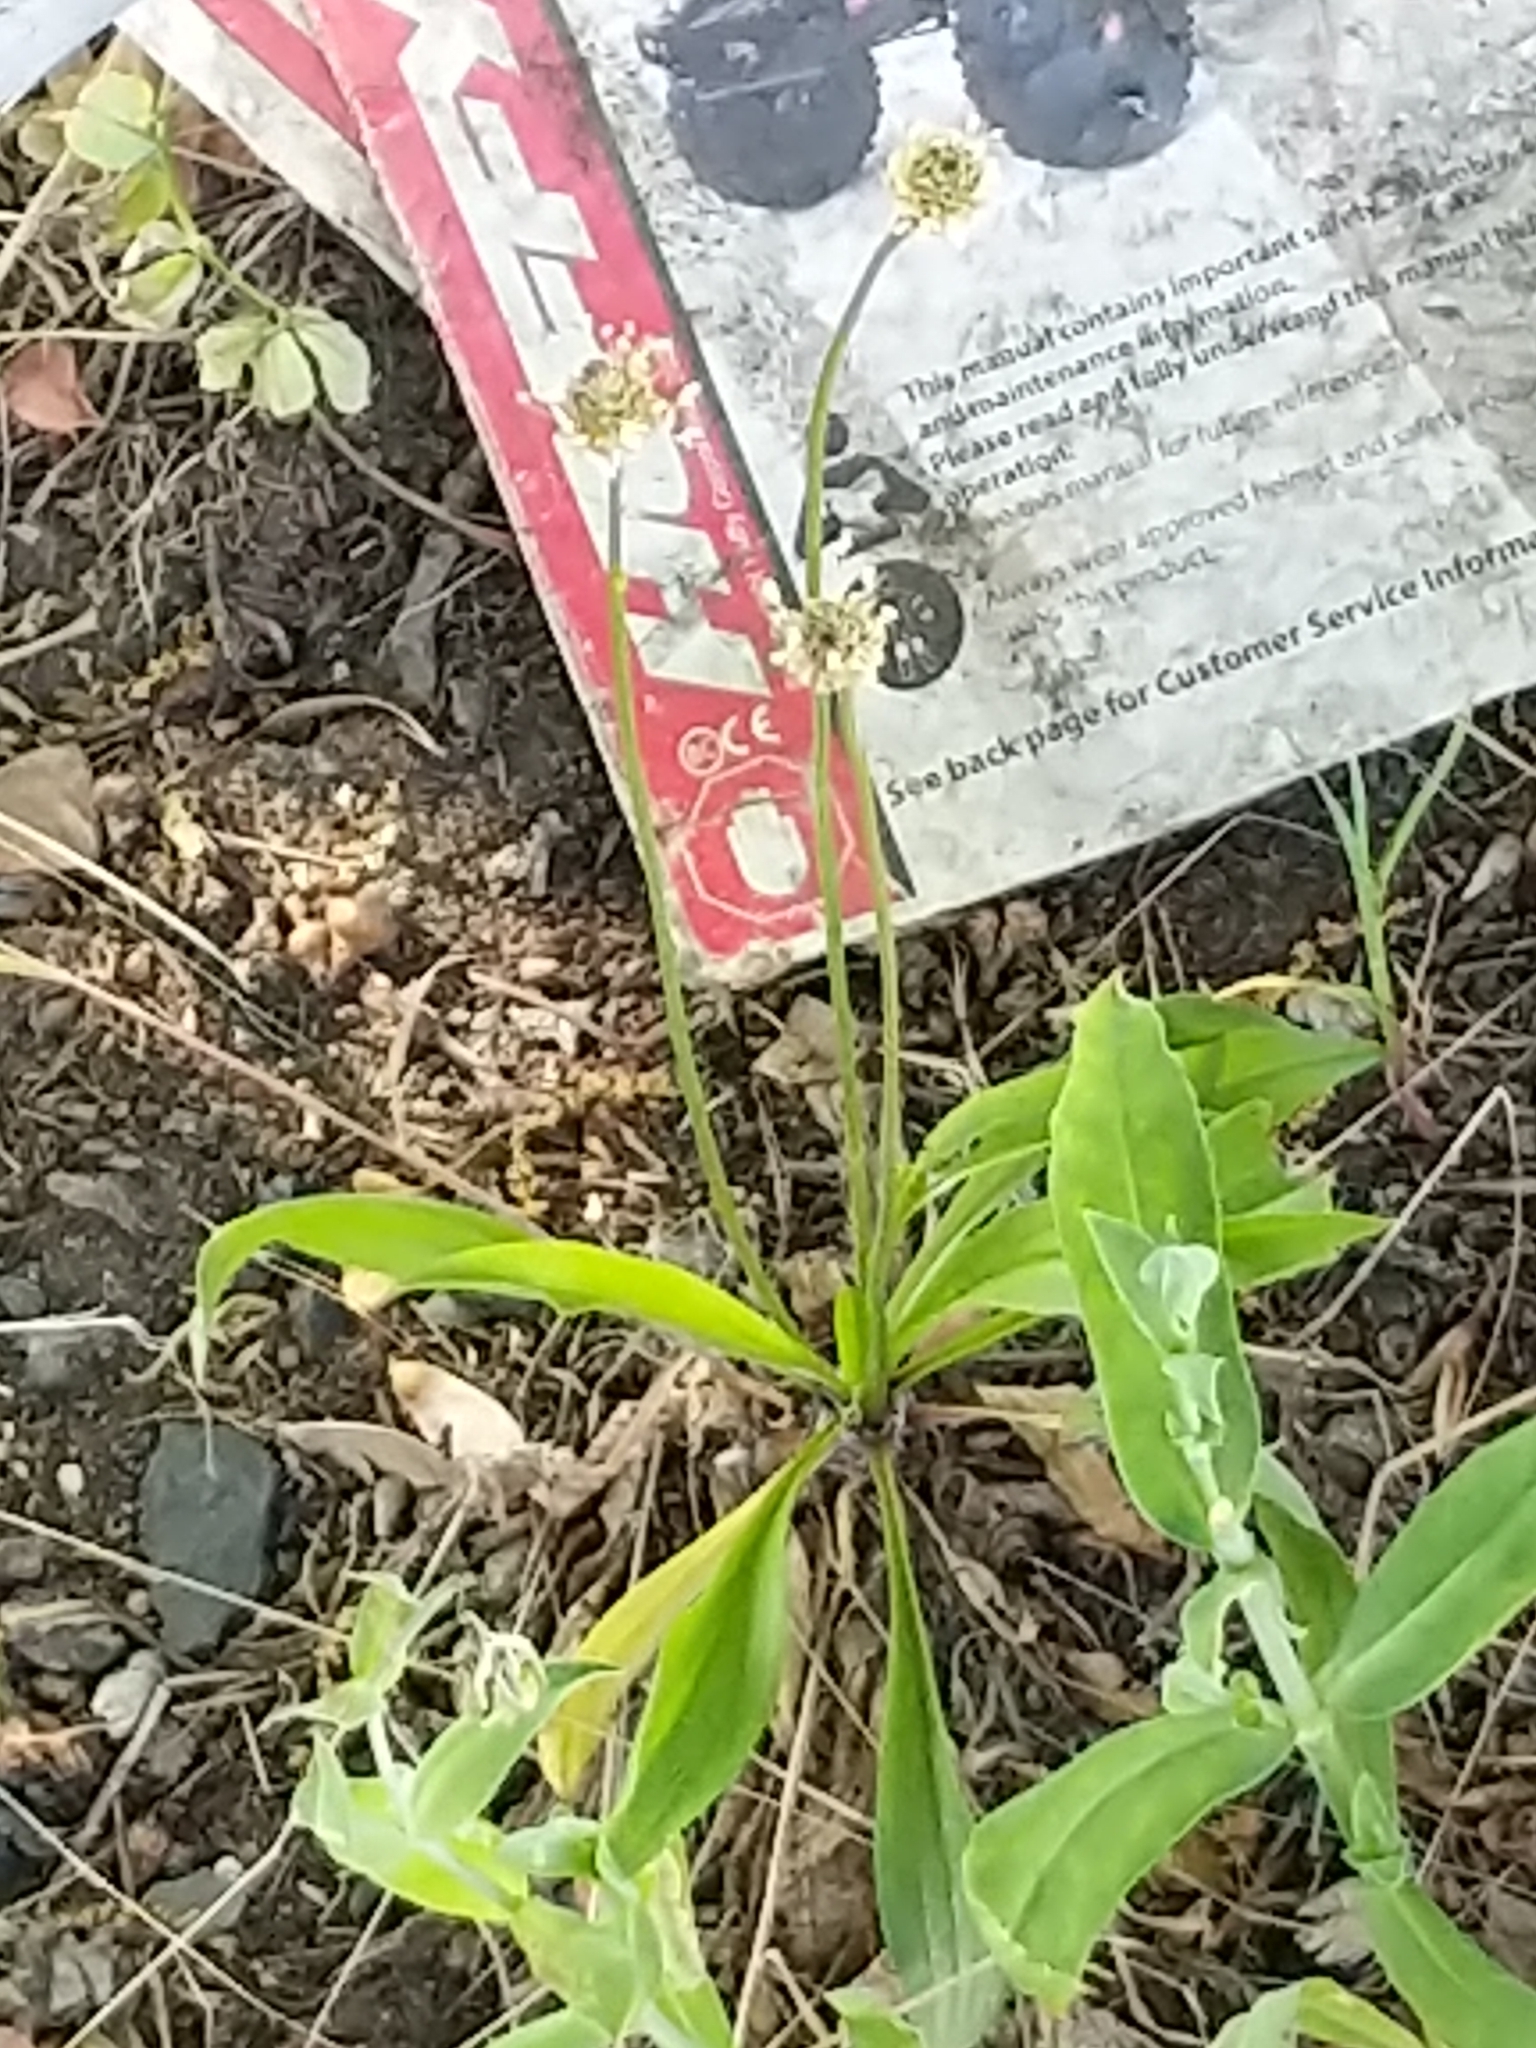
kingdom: Plantae
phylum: Tracheophyta
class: Magnoliopsida
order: Lamiales
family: Plantaginaceae
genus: Plantago
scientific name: Plantago lanceolata
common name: Ribwort plantain
